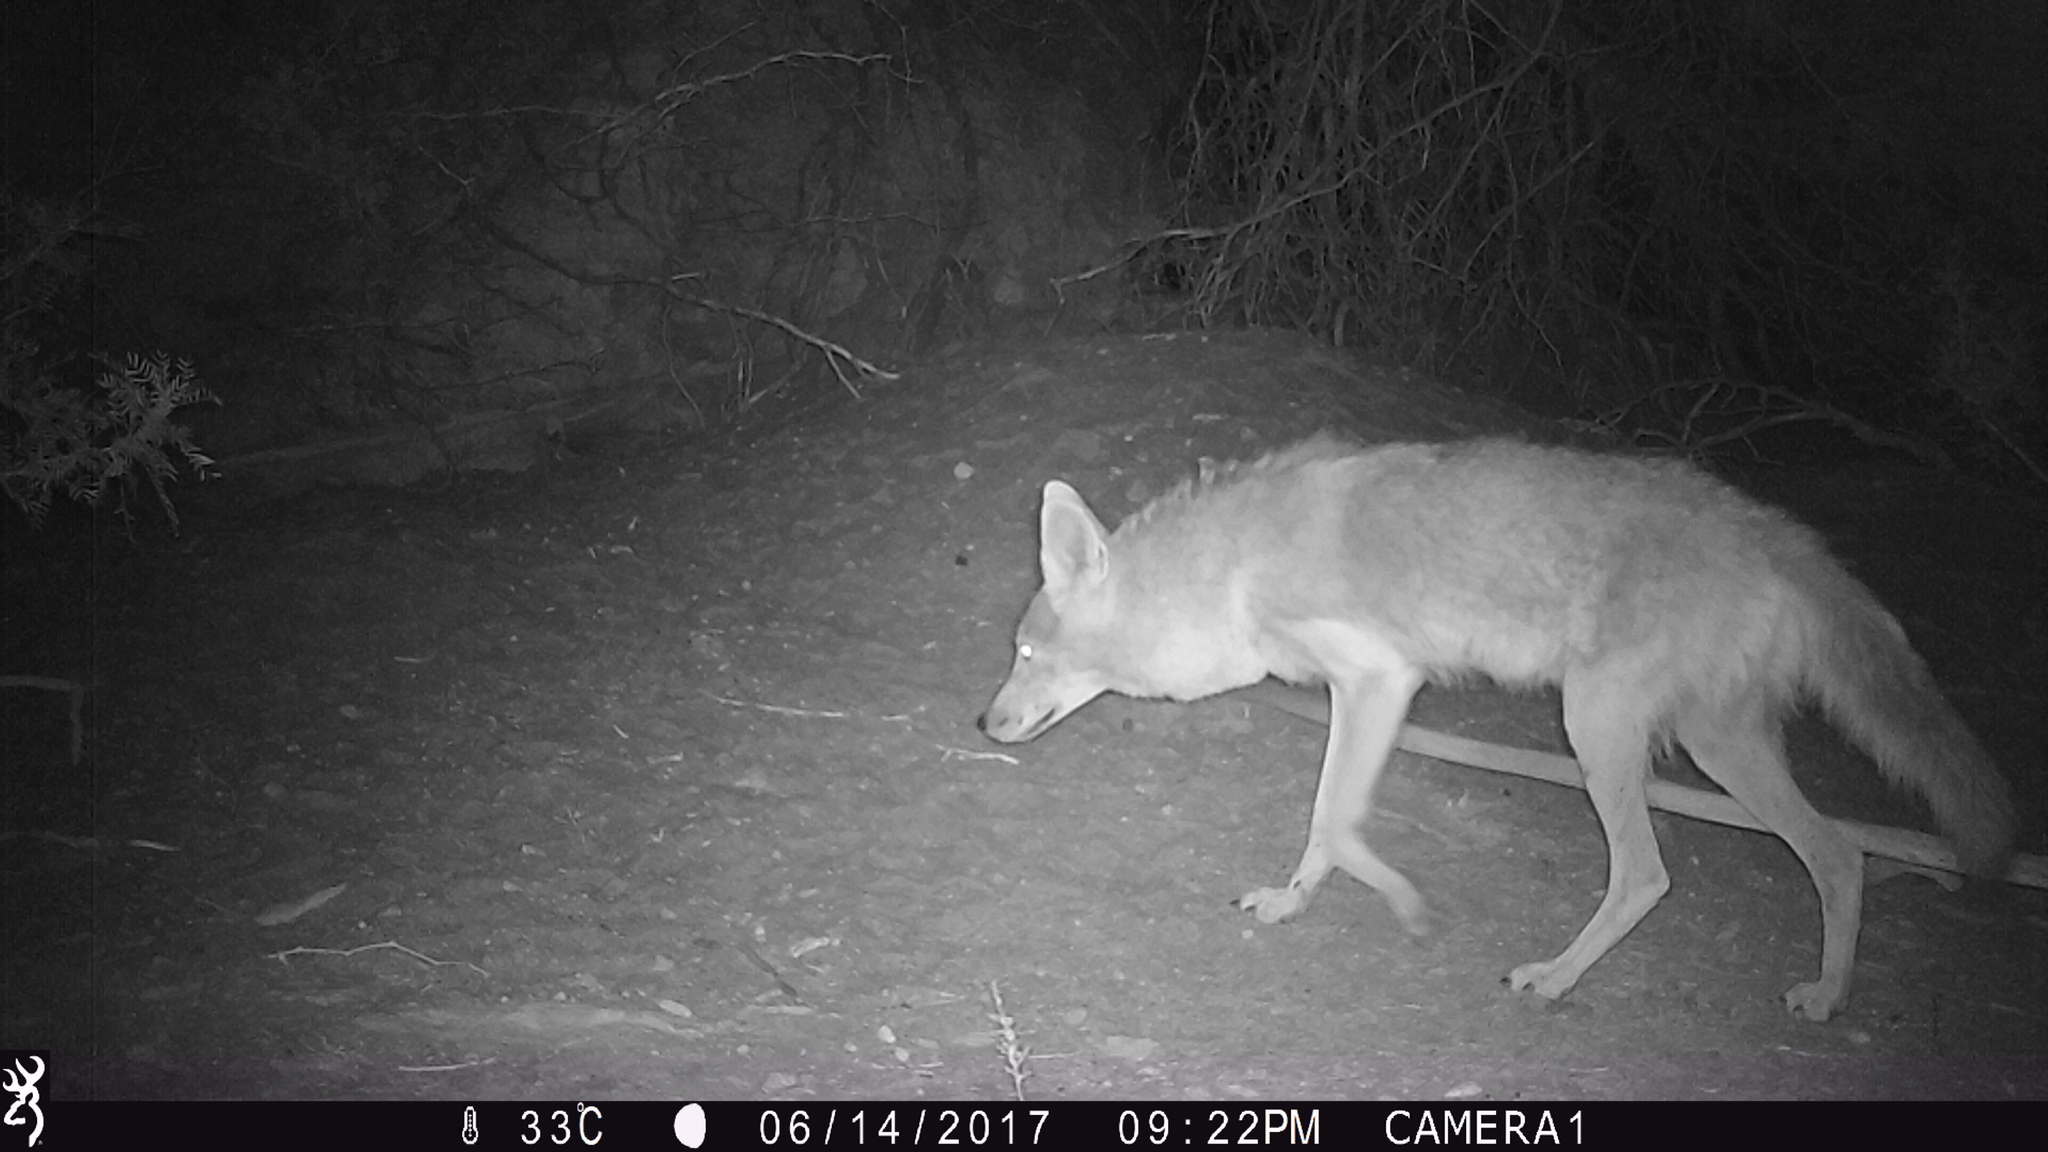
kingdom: Animalia
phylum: Chordata
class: Mammalia
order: Carnivora
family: Canidae
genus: Canis
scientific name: Canis latrans
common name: Coyote
